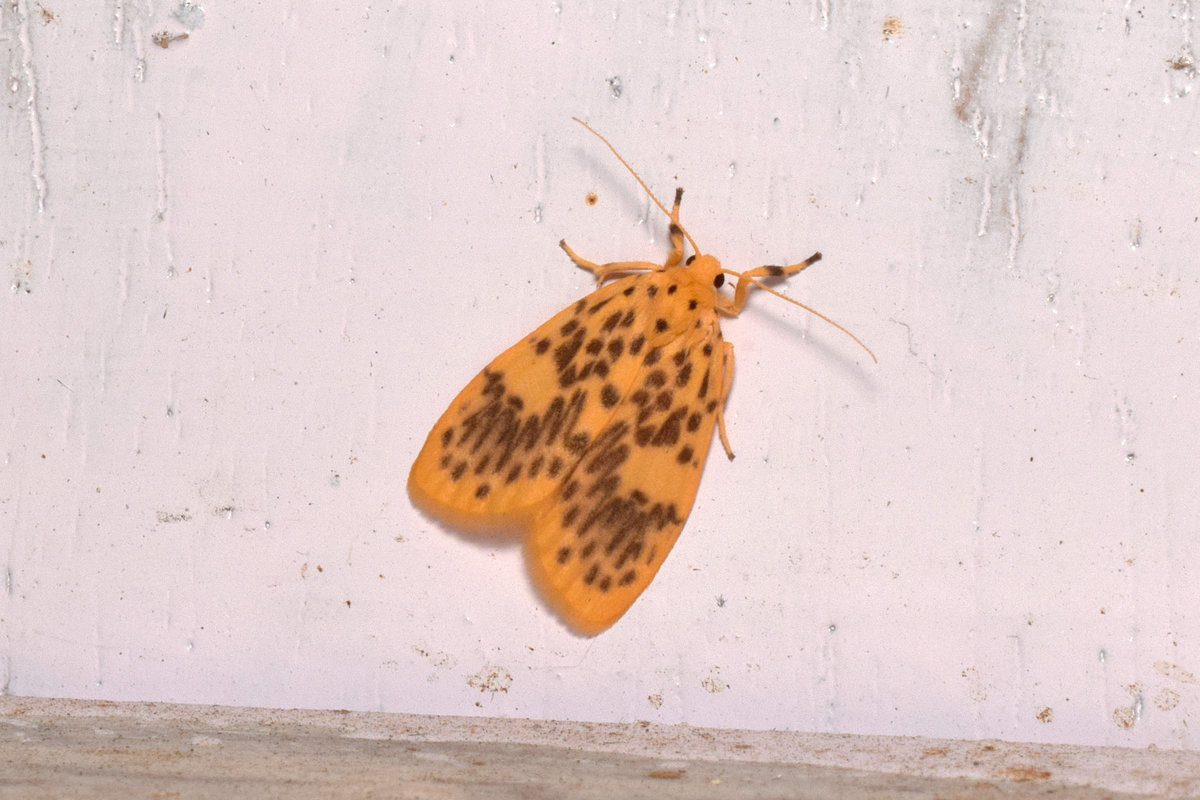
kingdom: Animalia
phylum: Arthropoda
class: Insecta
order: Lepidoptera
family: Erebidae
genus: Miltochrista
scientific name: Miltochrista obsoleta
